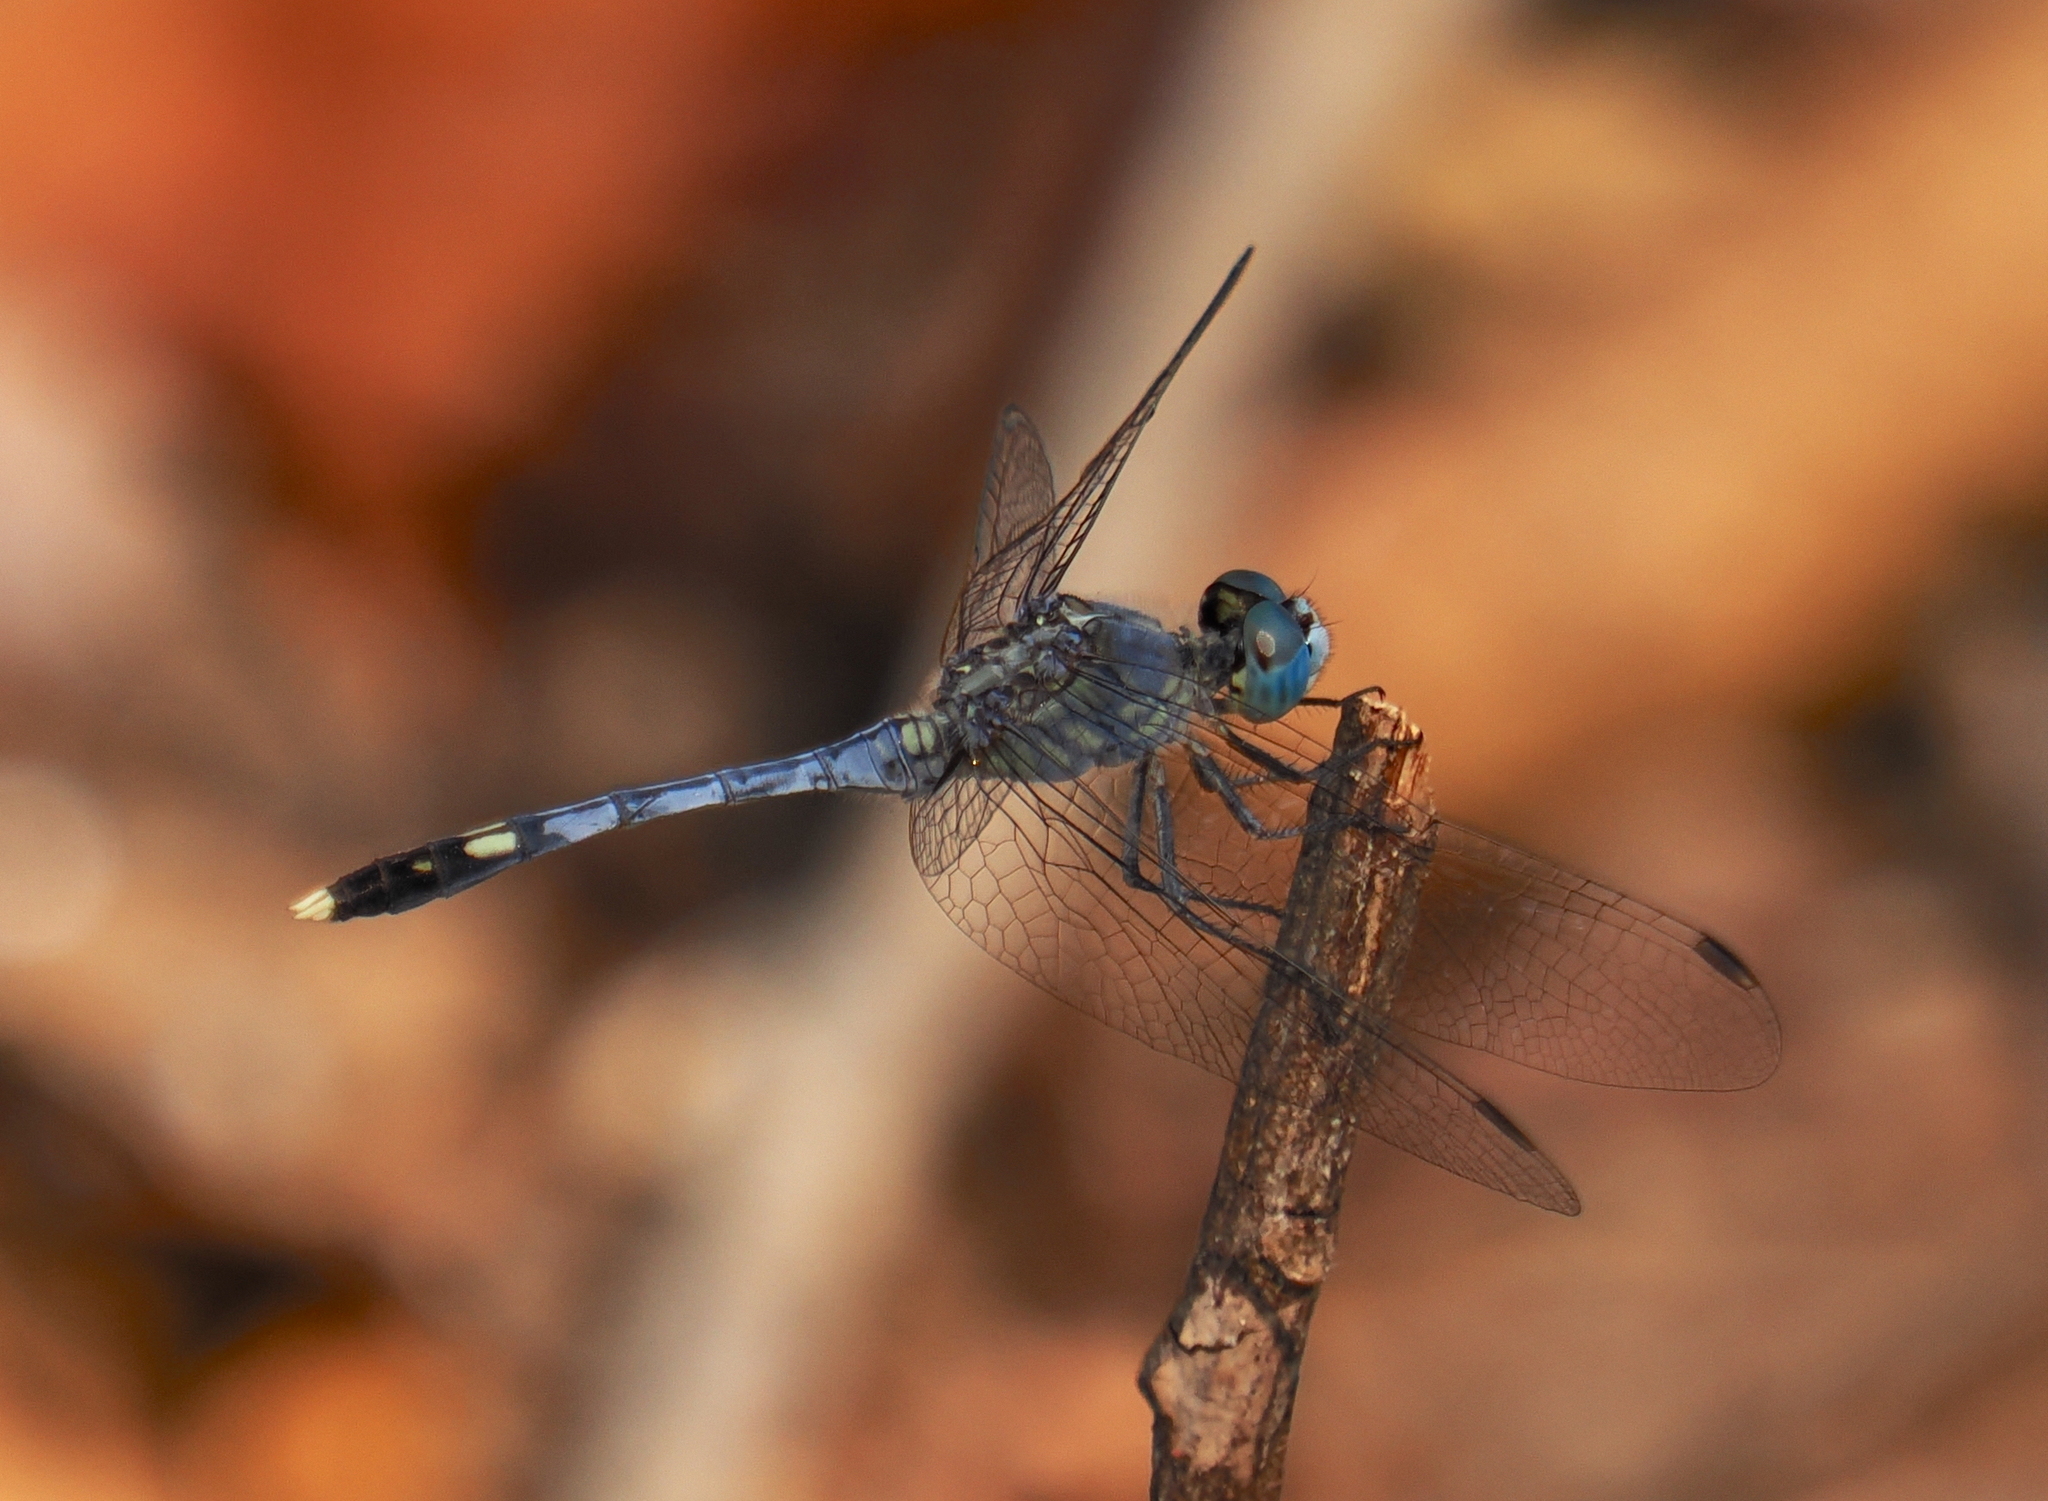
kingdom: Animalia
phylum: Arthropoda
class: Insecta
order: Odonata
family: Libellulidae
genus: Diplacodes
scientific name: Diplacodes trivialis
